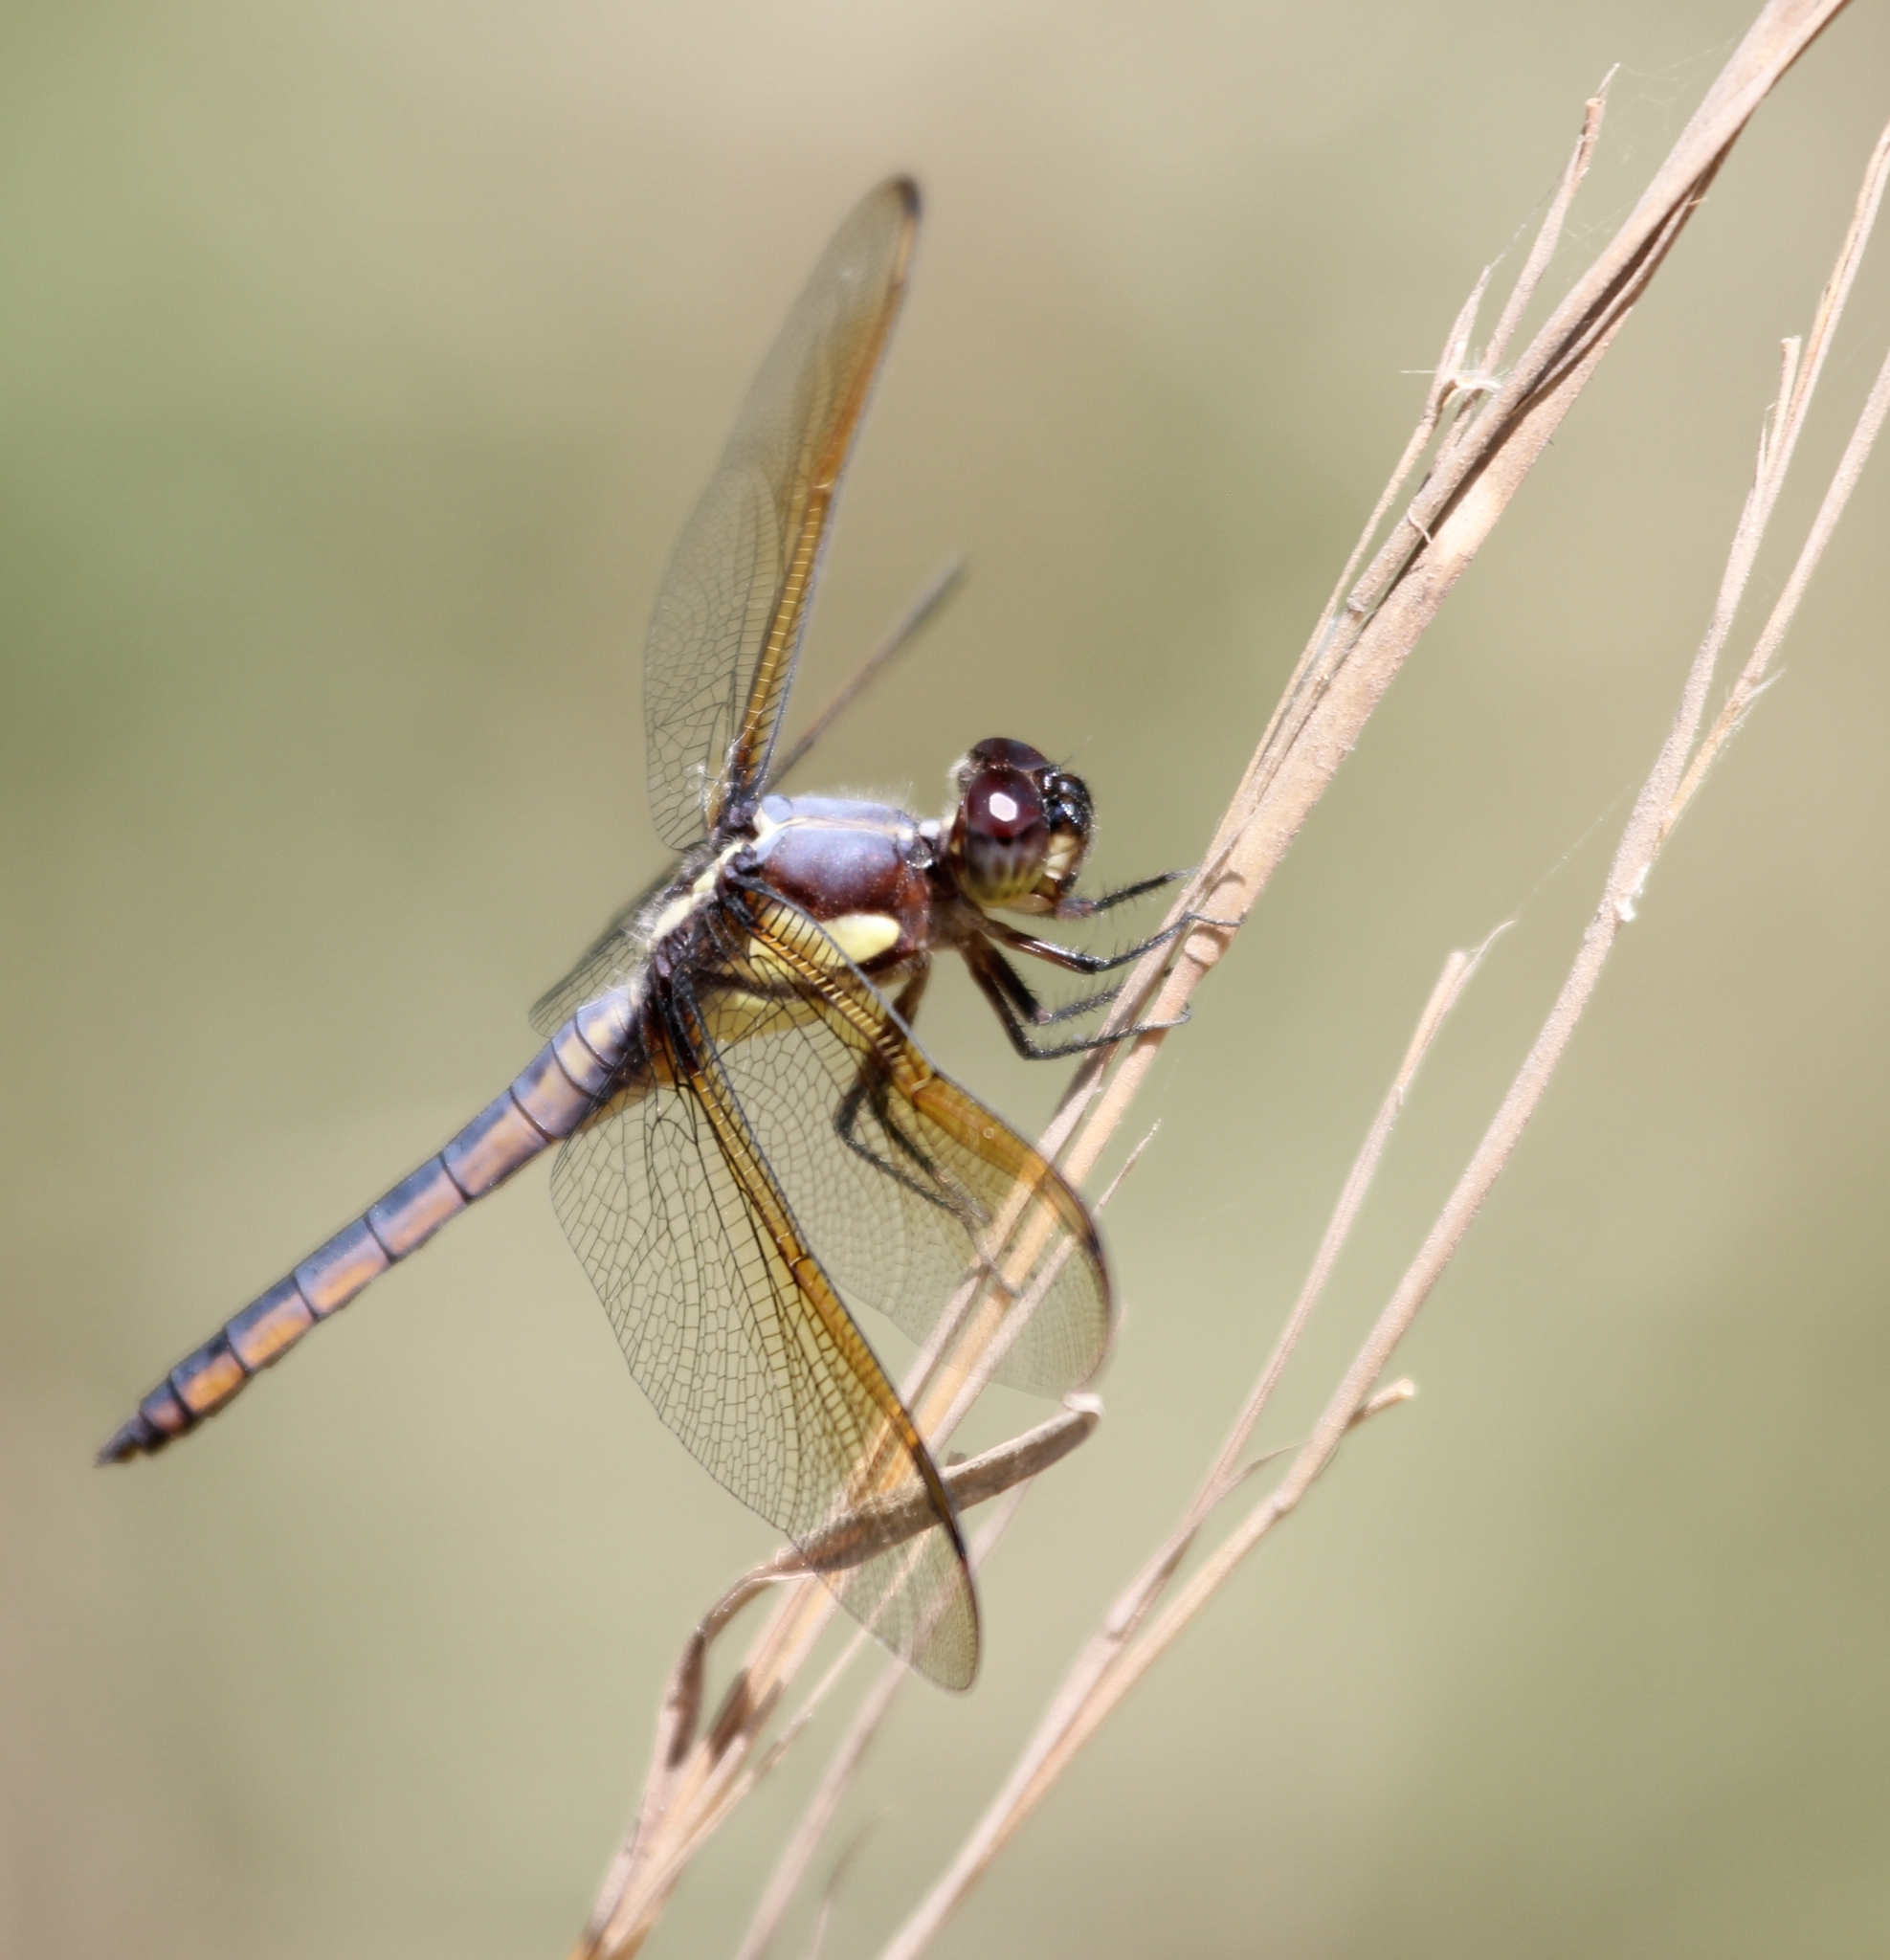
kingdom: Animalia
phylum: Arthropoda
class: Insecta
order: Odonata
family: Libellulidae
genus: Libellula
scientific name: Libellula flavida
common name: Yellow-sided skimmer
